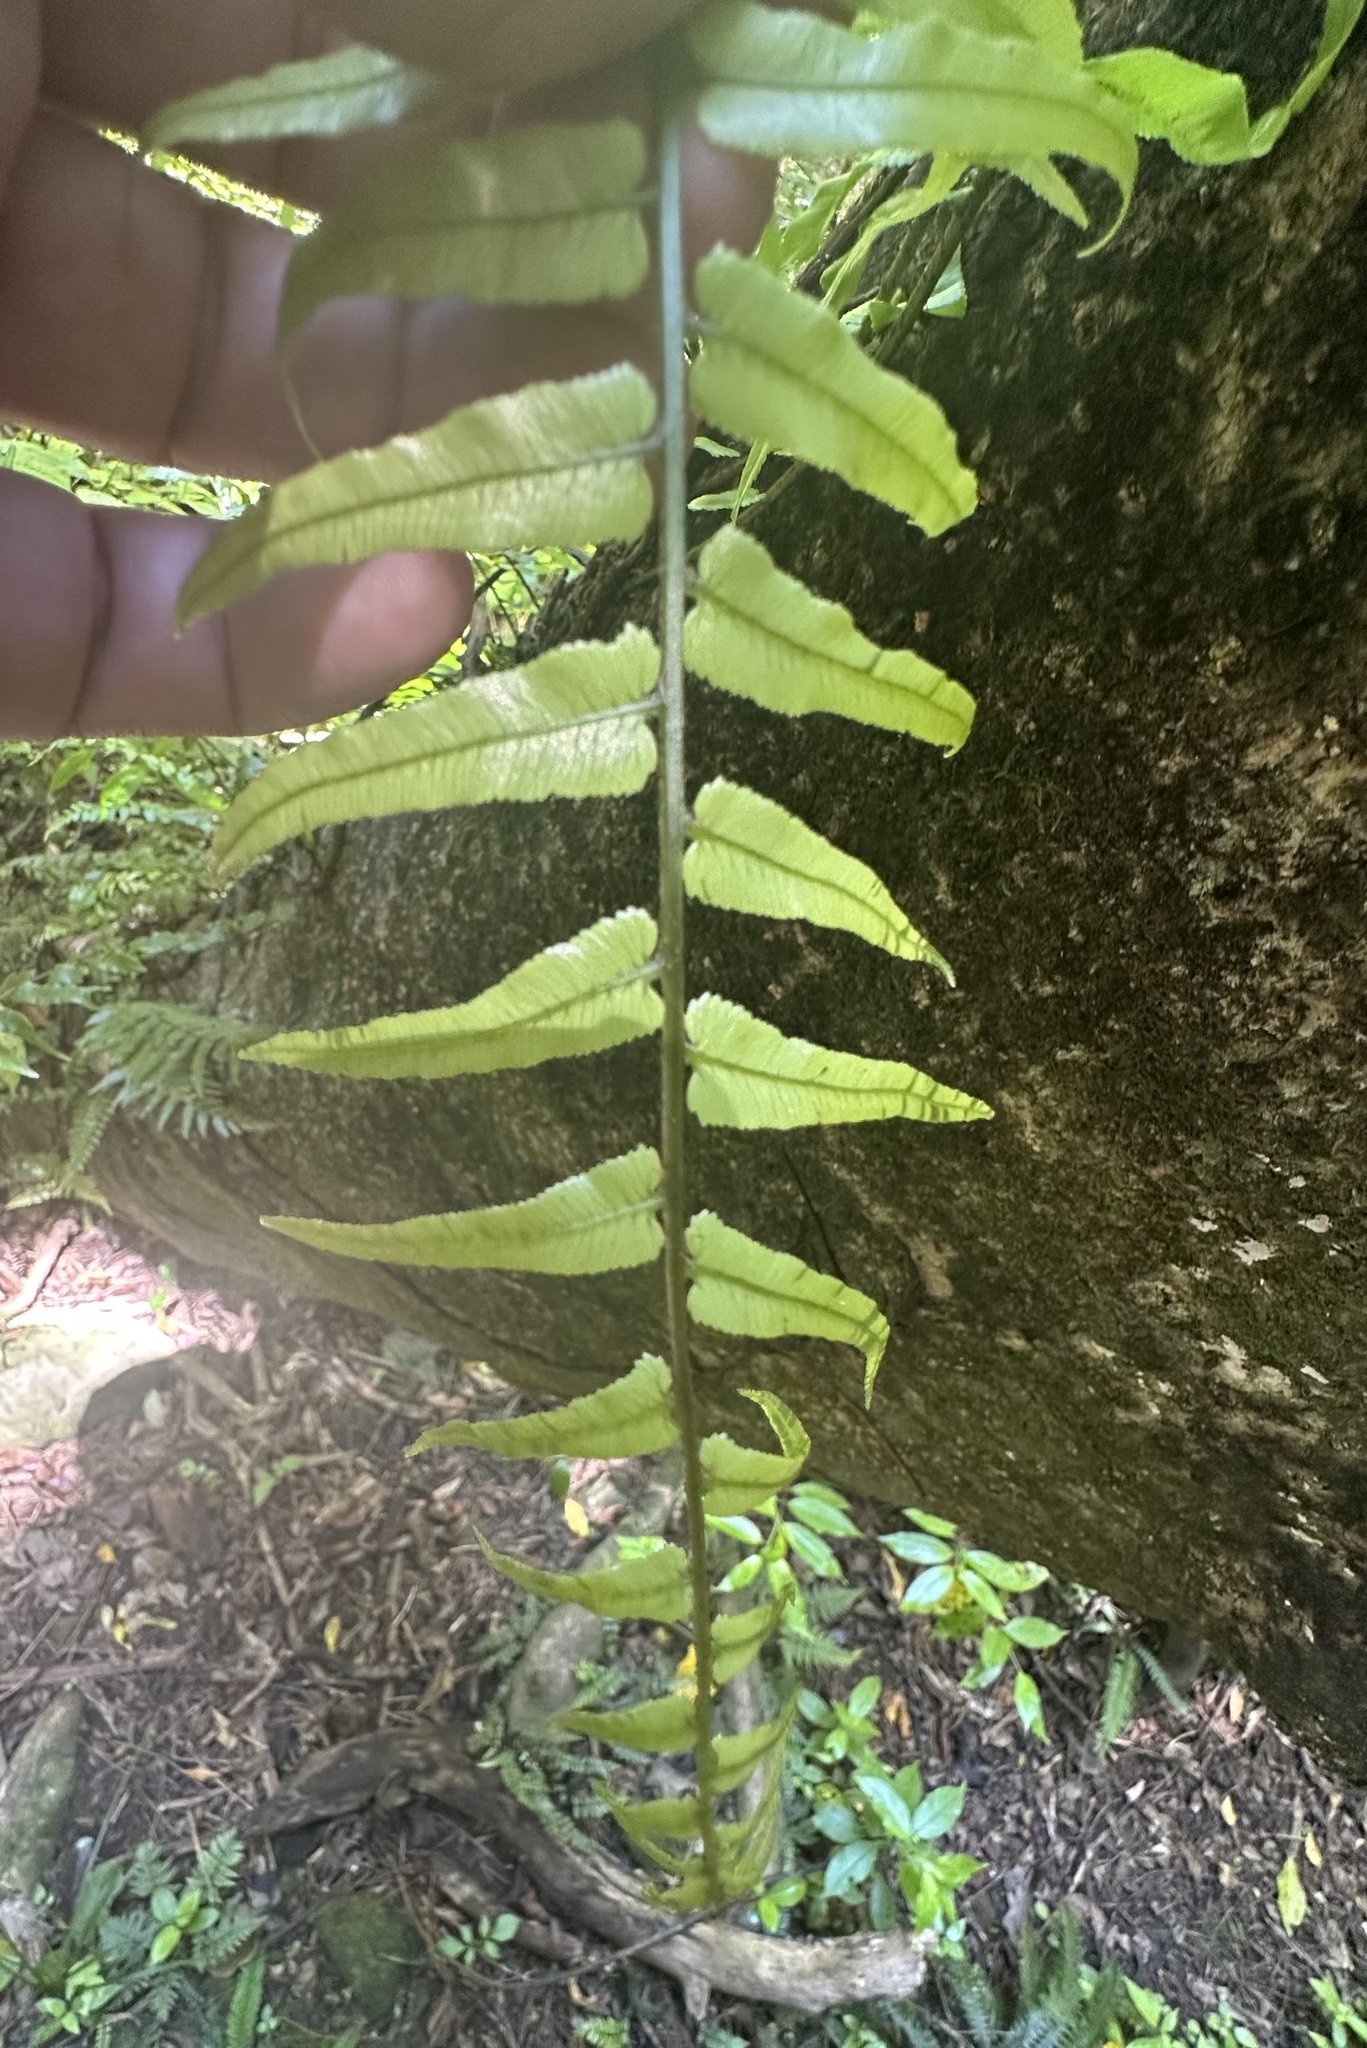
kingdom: Plantae
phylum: Tracheophyta
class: Polypodiopsida
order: Polypodiales
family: Blechnaceae
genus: Icarus
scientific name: Icarus filiformis
